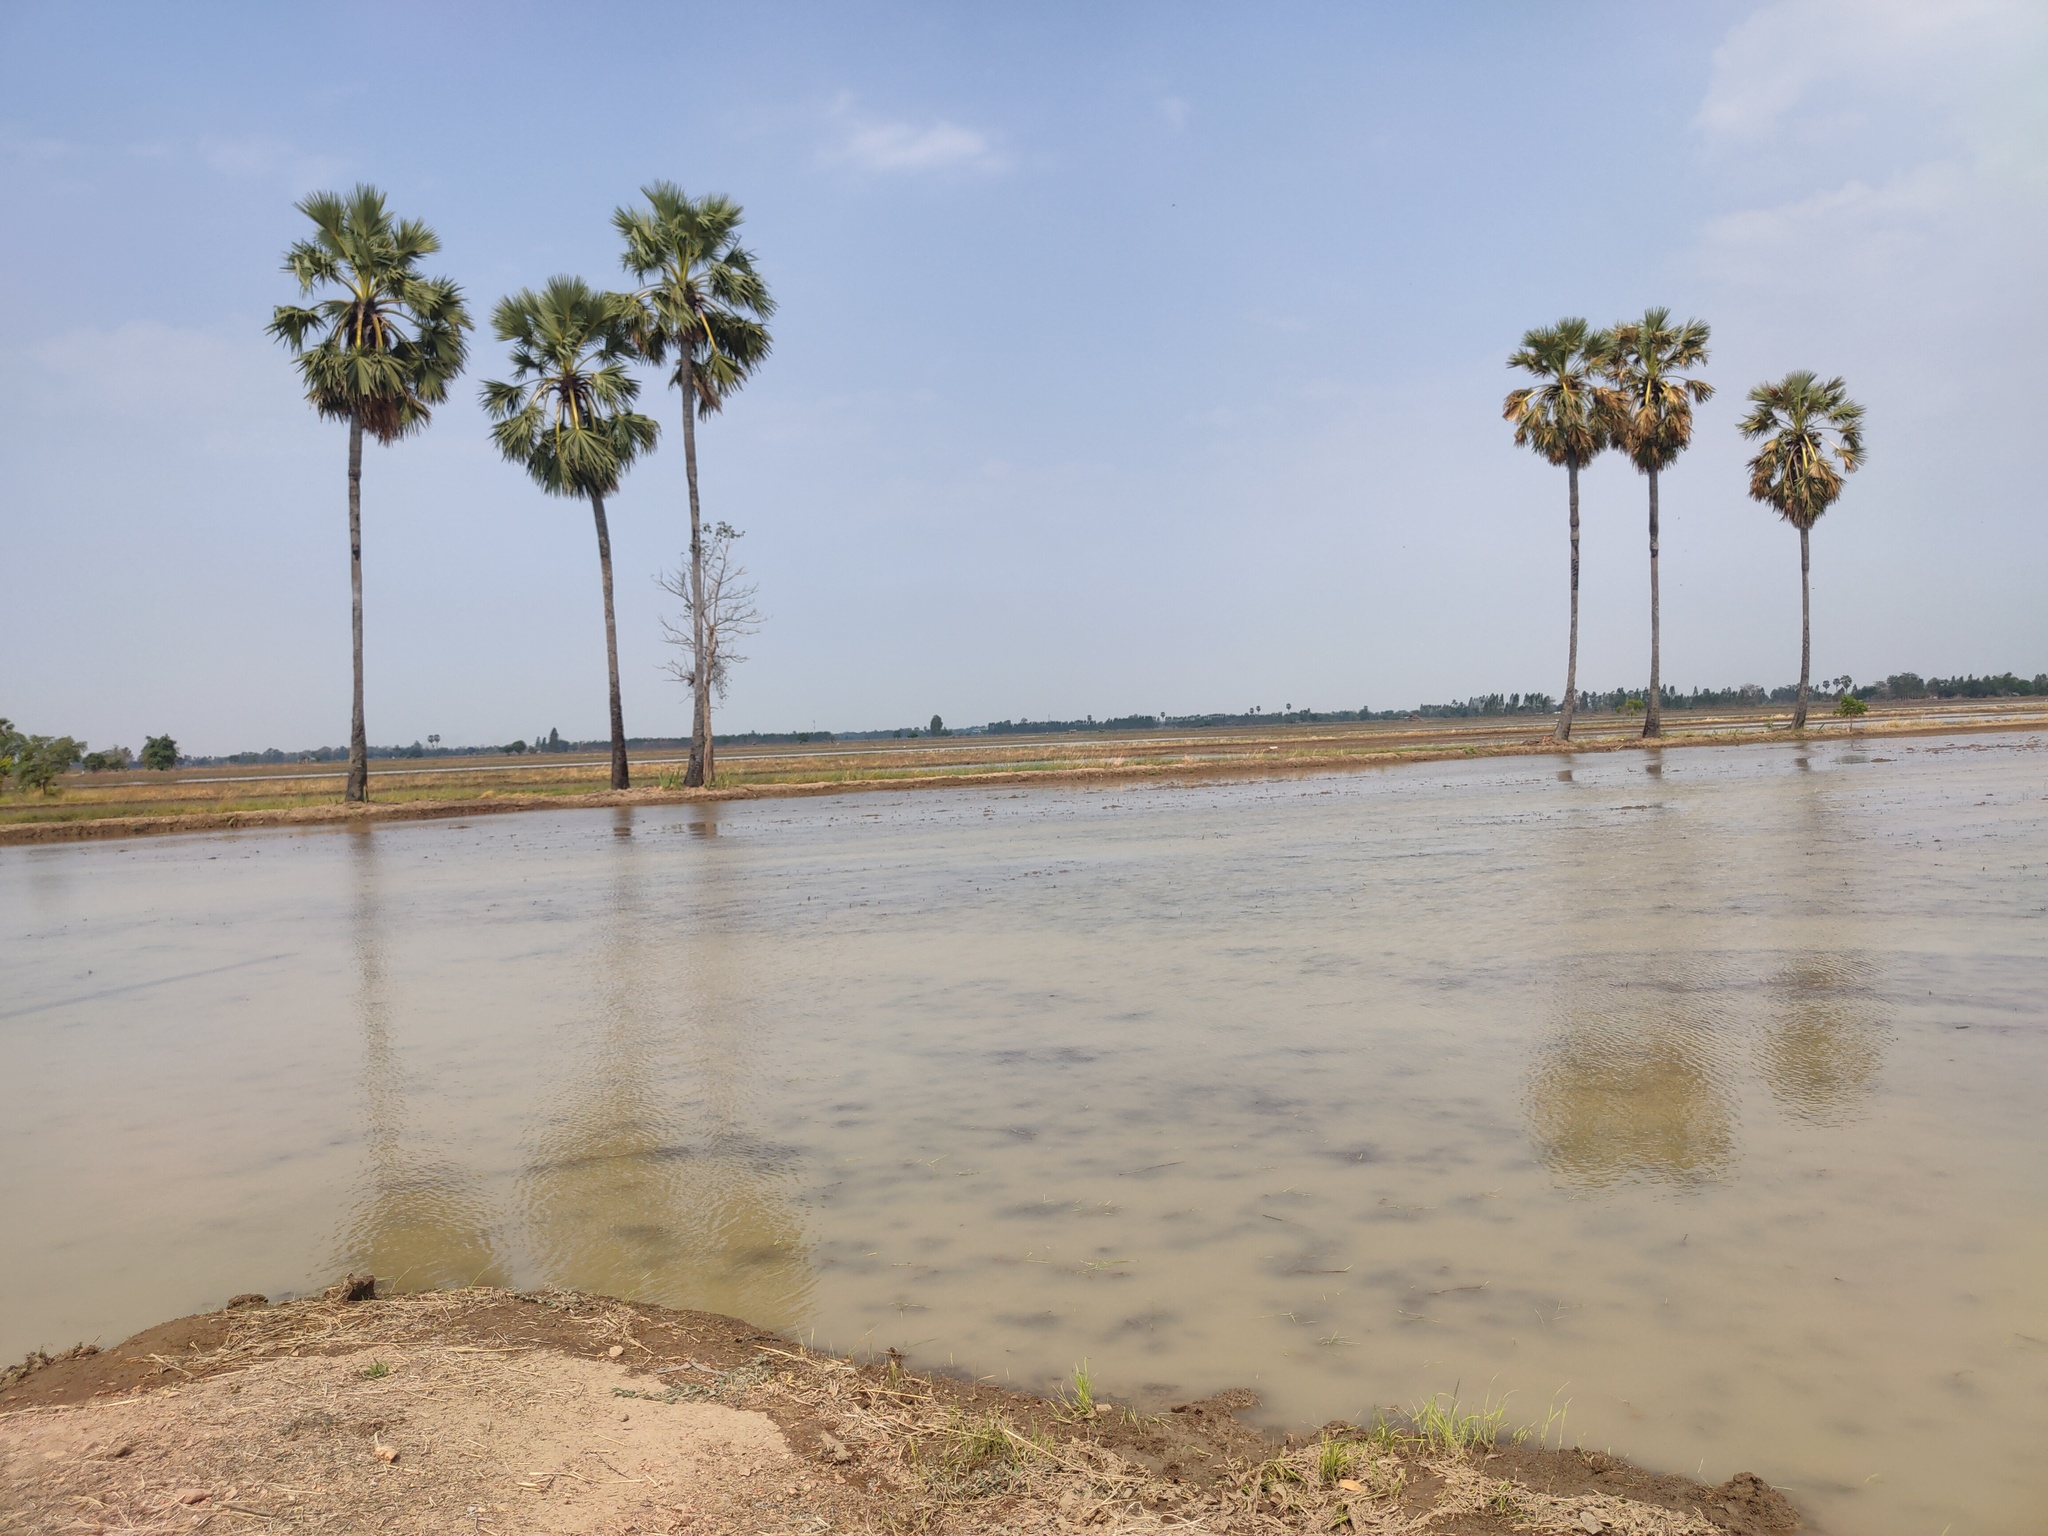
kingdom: Plantae
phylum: Tracheophyta
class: Liliopsida
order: Arecales
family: Arecaceae
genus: Borassus
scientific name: Borassus flabellifer
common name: Palmyra palm
